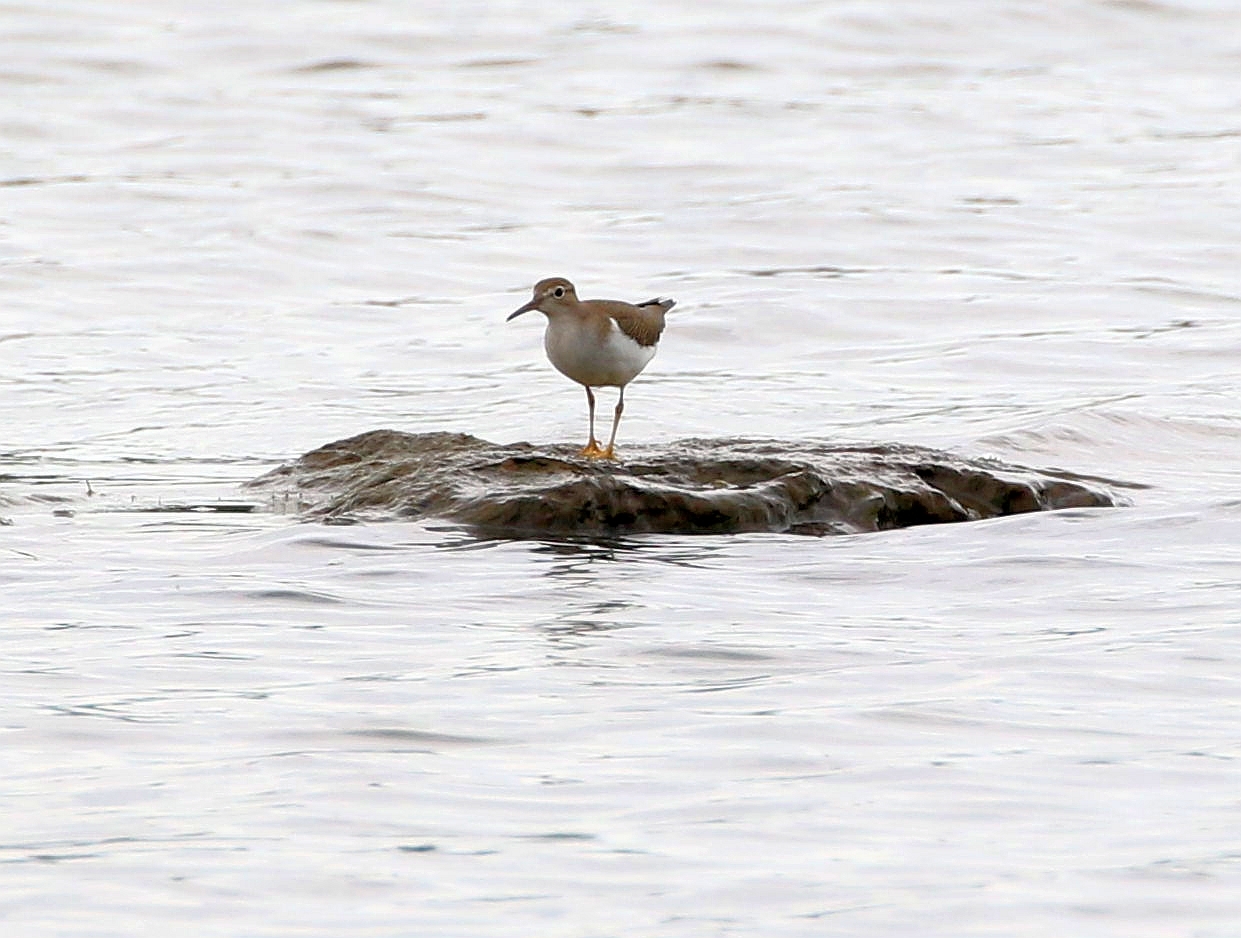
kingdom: Animalia
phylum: Chordata
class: Aves
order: Charadriiformes
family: Scolopacidae
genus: Actitis
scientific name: Actitis macularius
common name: Spotted sandpiper
